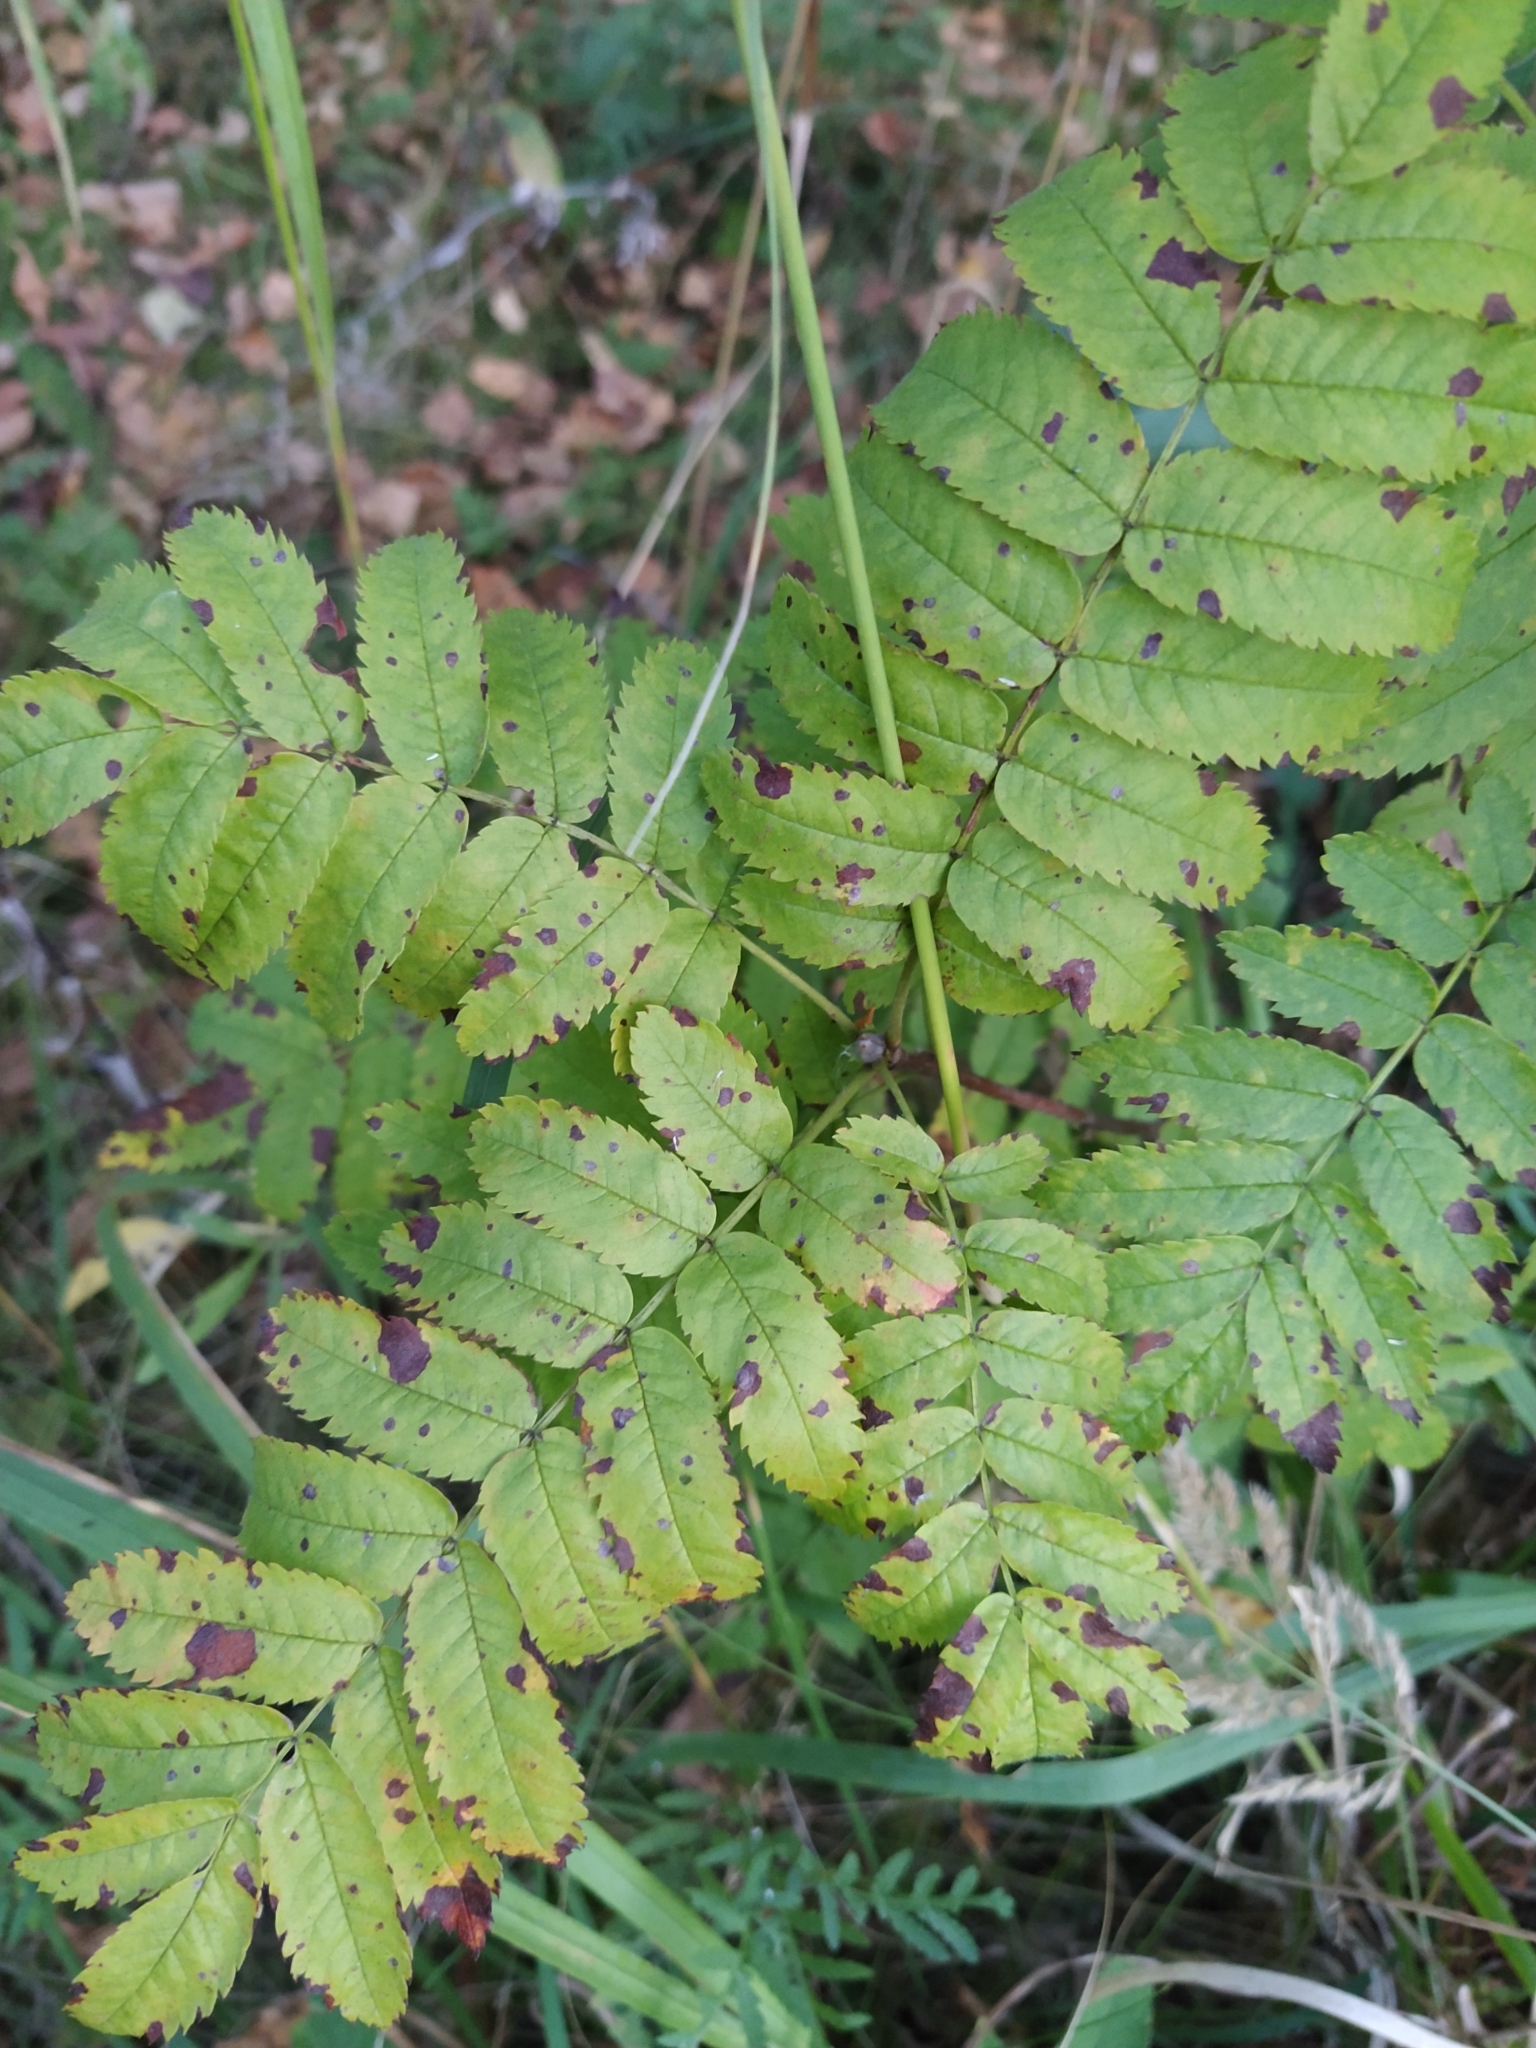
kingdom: Plantae
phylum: Tracheophyta
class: Magnoliopsida
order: Rosales
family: Rosaceae
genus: Sorbus
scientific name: Sorbus aucuparia
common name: Rowan
